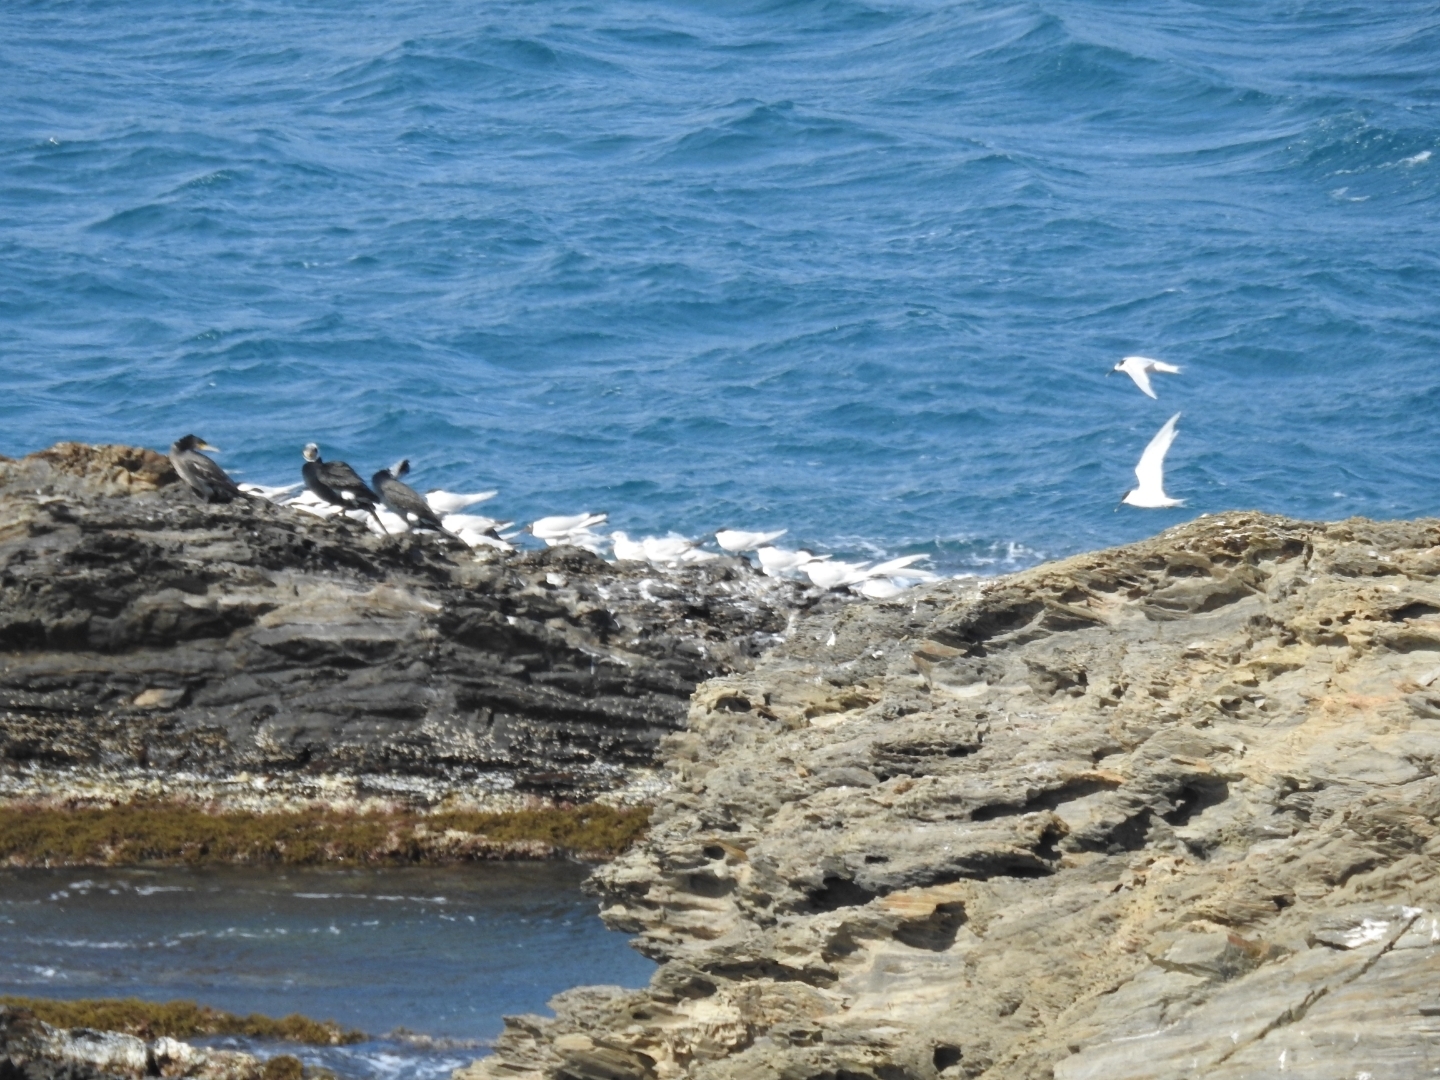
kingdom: Animalia
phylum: Chordata
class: Aves
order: Suliformes
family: Phalacrocoracidae
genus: Phalacrocorax
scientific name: Phalacrocorax carbo
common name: Great cormorant
